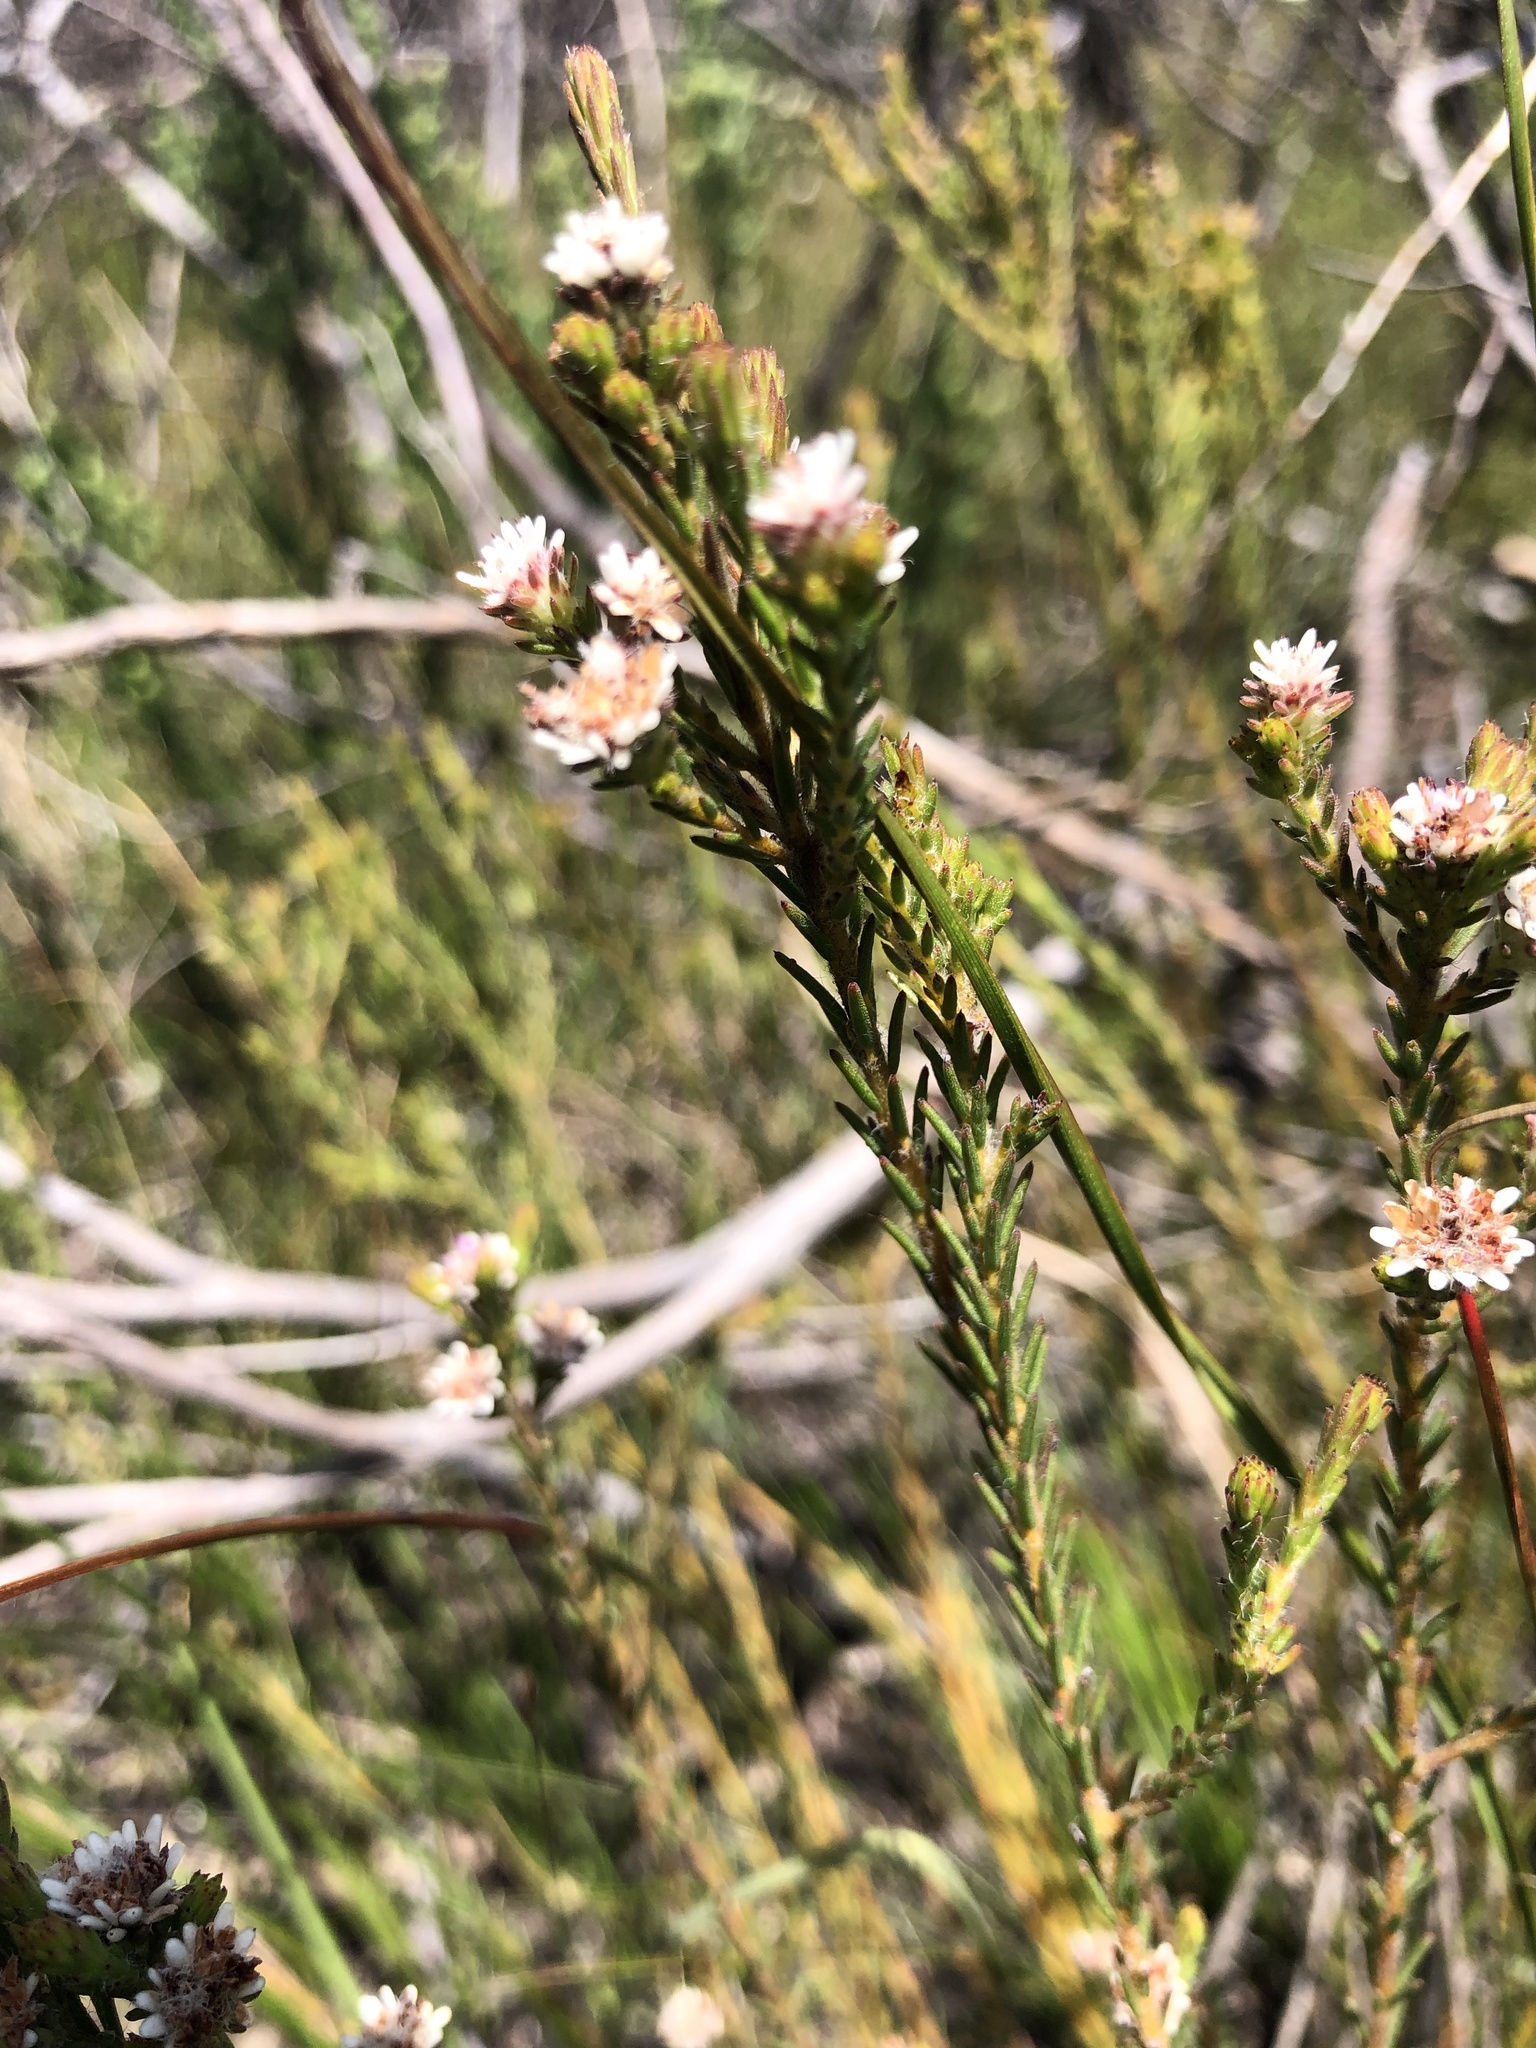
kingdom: Plantae
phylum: Tracheophyta
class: Magnoliopsida
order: Bruniales
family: Bruniaceae
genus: Staavia
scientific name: Staavia radiata
